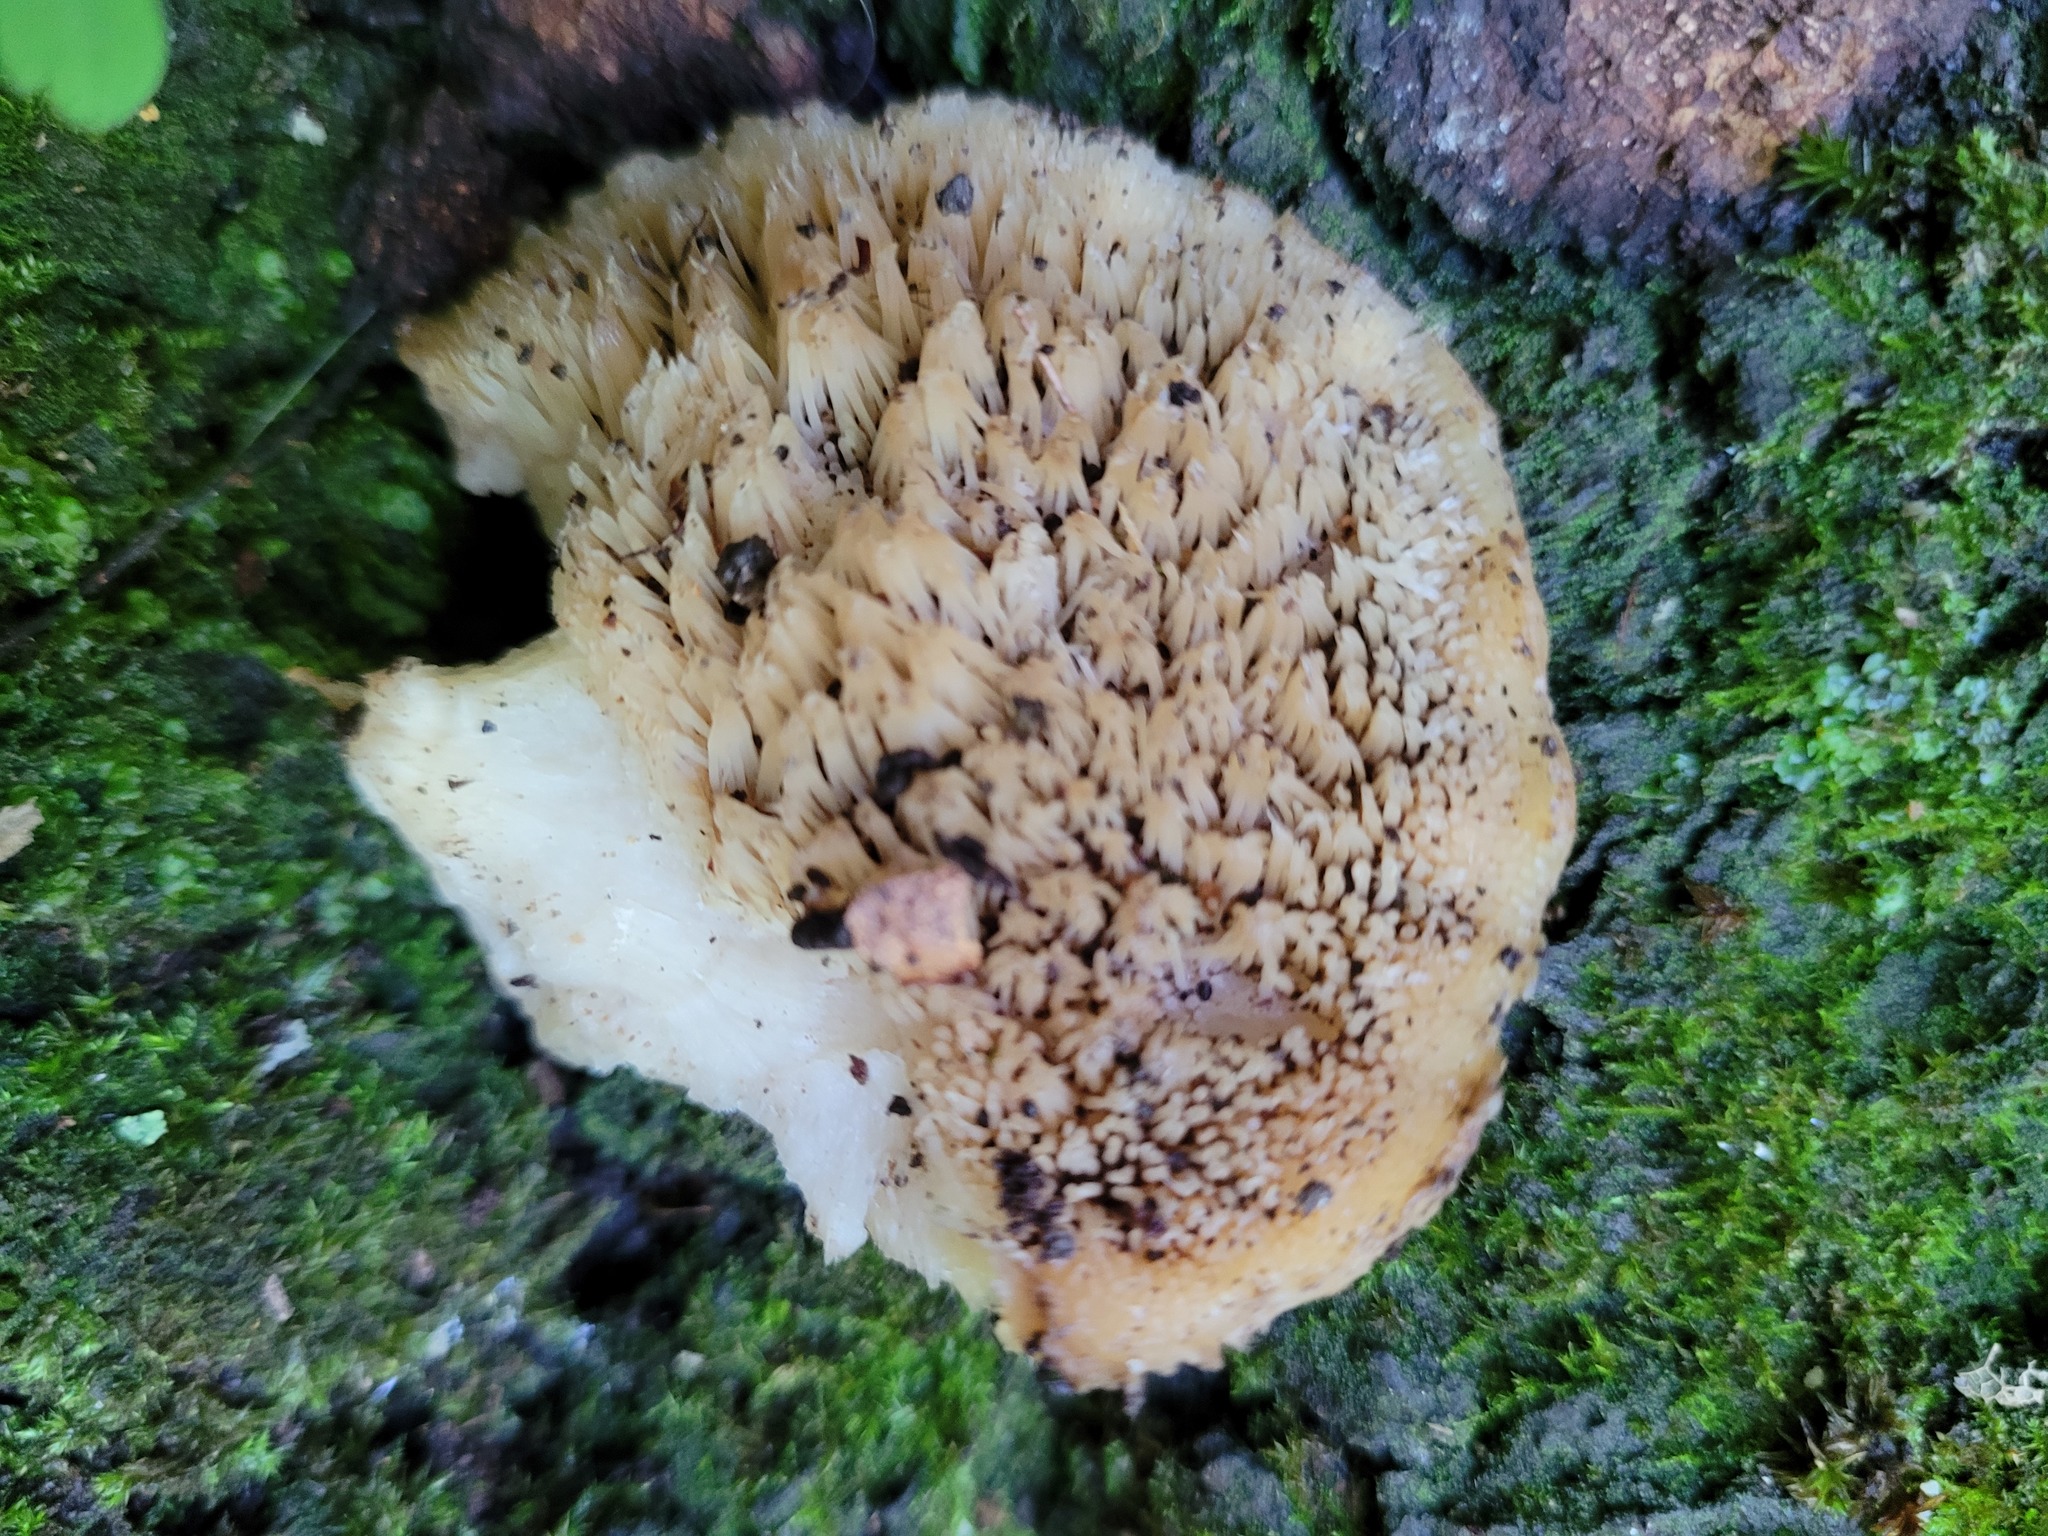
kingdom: Fungi
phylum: Basidiomycota
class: Agaricomycetes
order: Polyporales
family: Meruliaceae
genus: Climacodon
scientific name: Climacodon septentrionalis
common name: Northern tooth
